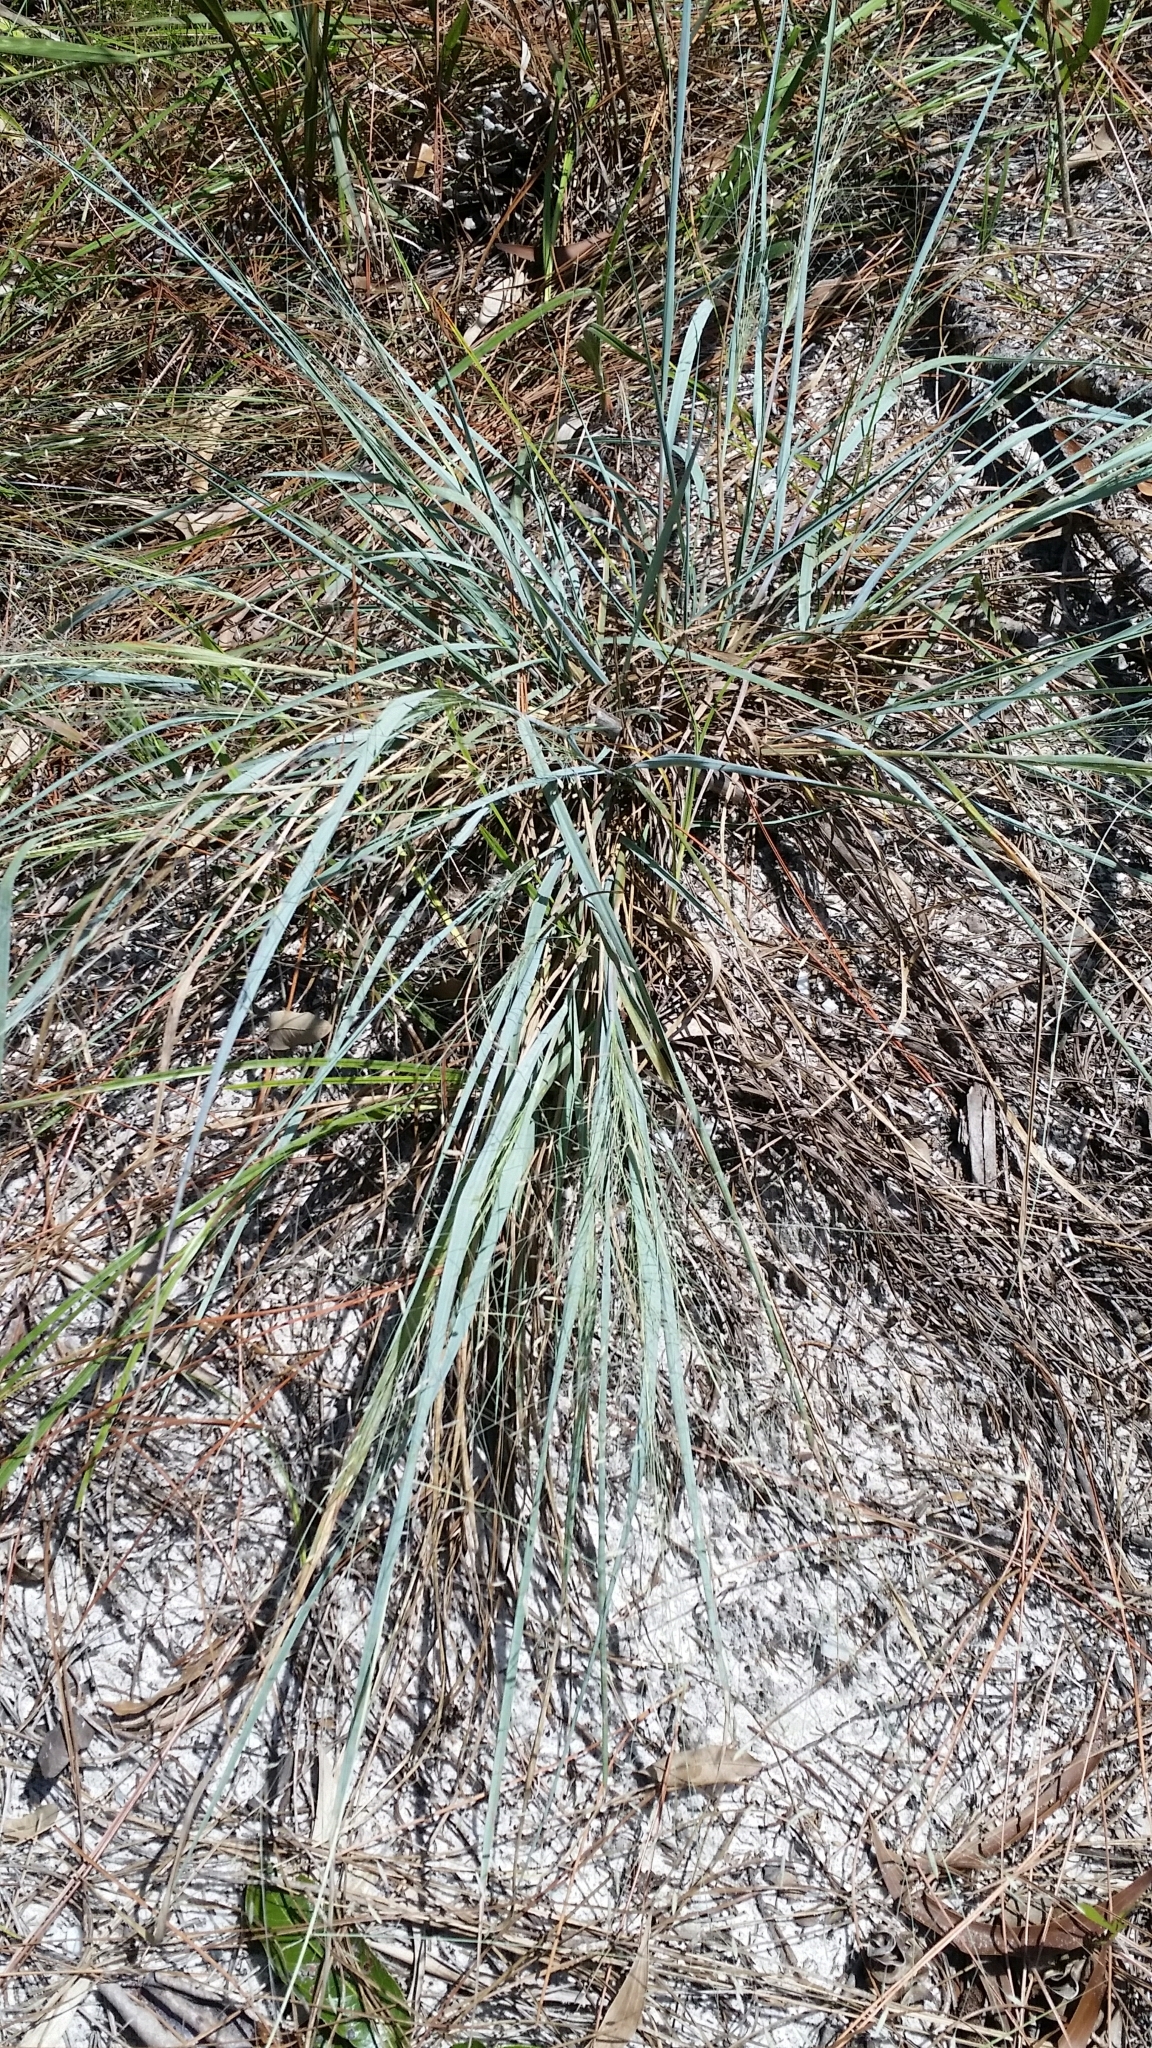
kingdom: Plantae
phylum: Tracheophyta
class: Liliopsida
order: Poales
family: Poaceae
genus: Eragrostis
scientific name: Eragrostis elliottii
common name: Elliott's love grass
